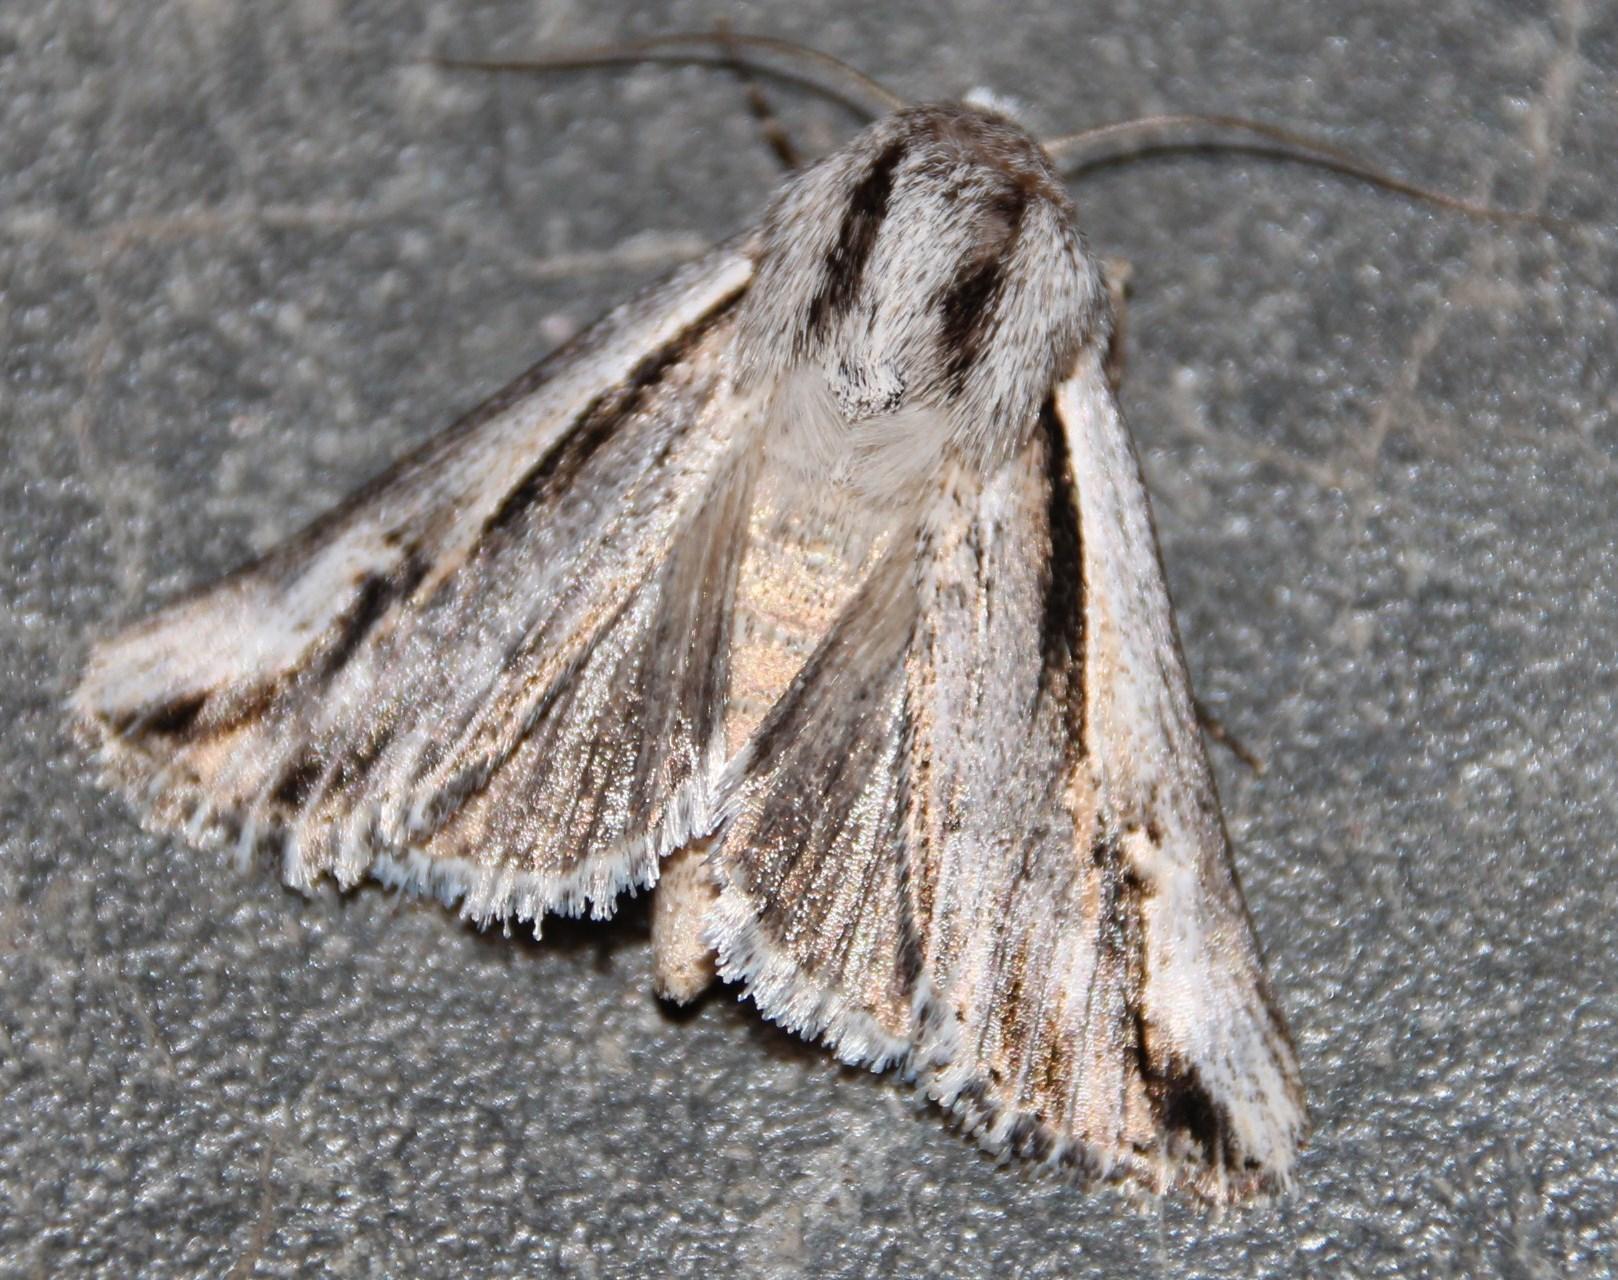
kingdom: Animalia
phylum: Arthropoda
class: Insecta
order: Lepidoptera
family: Noctuidae
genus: Centrarthra
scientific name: Centrarthra ossicolor
